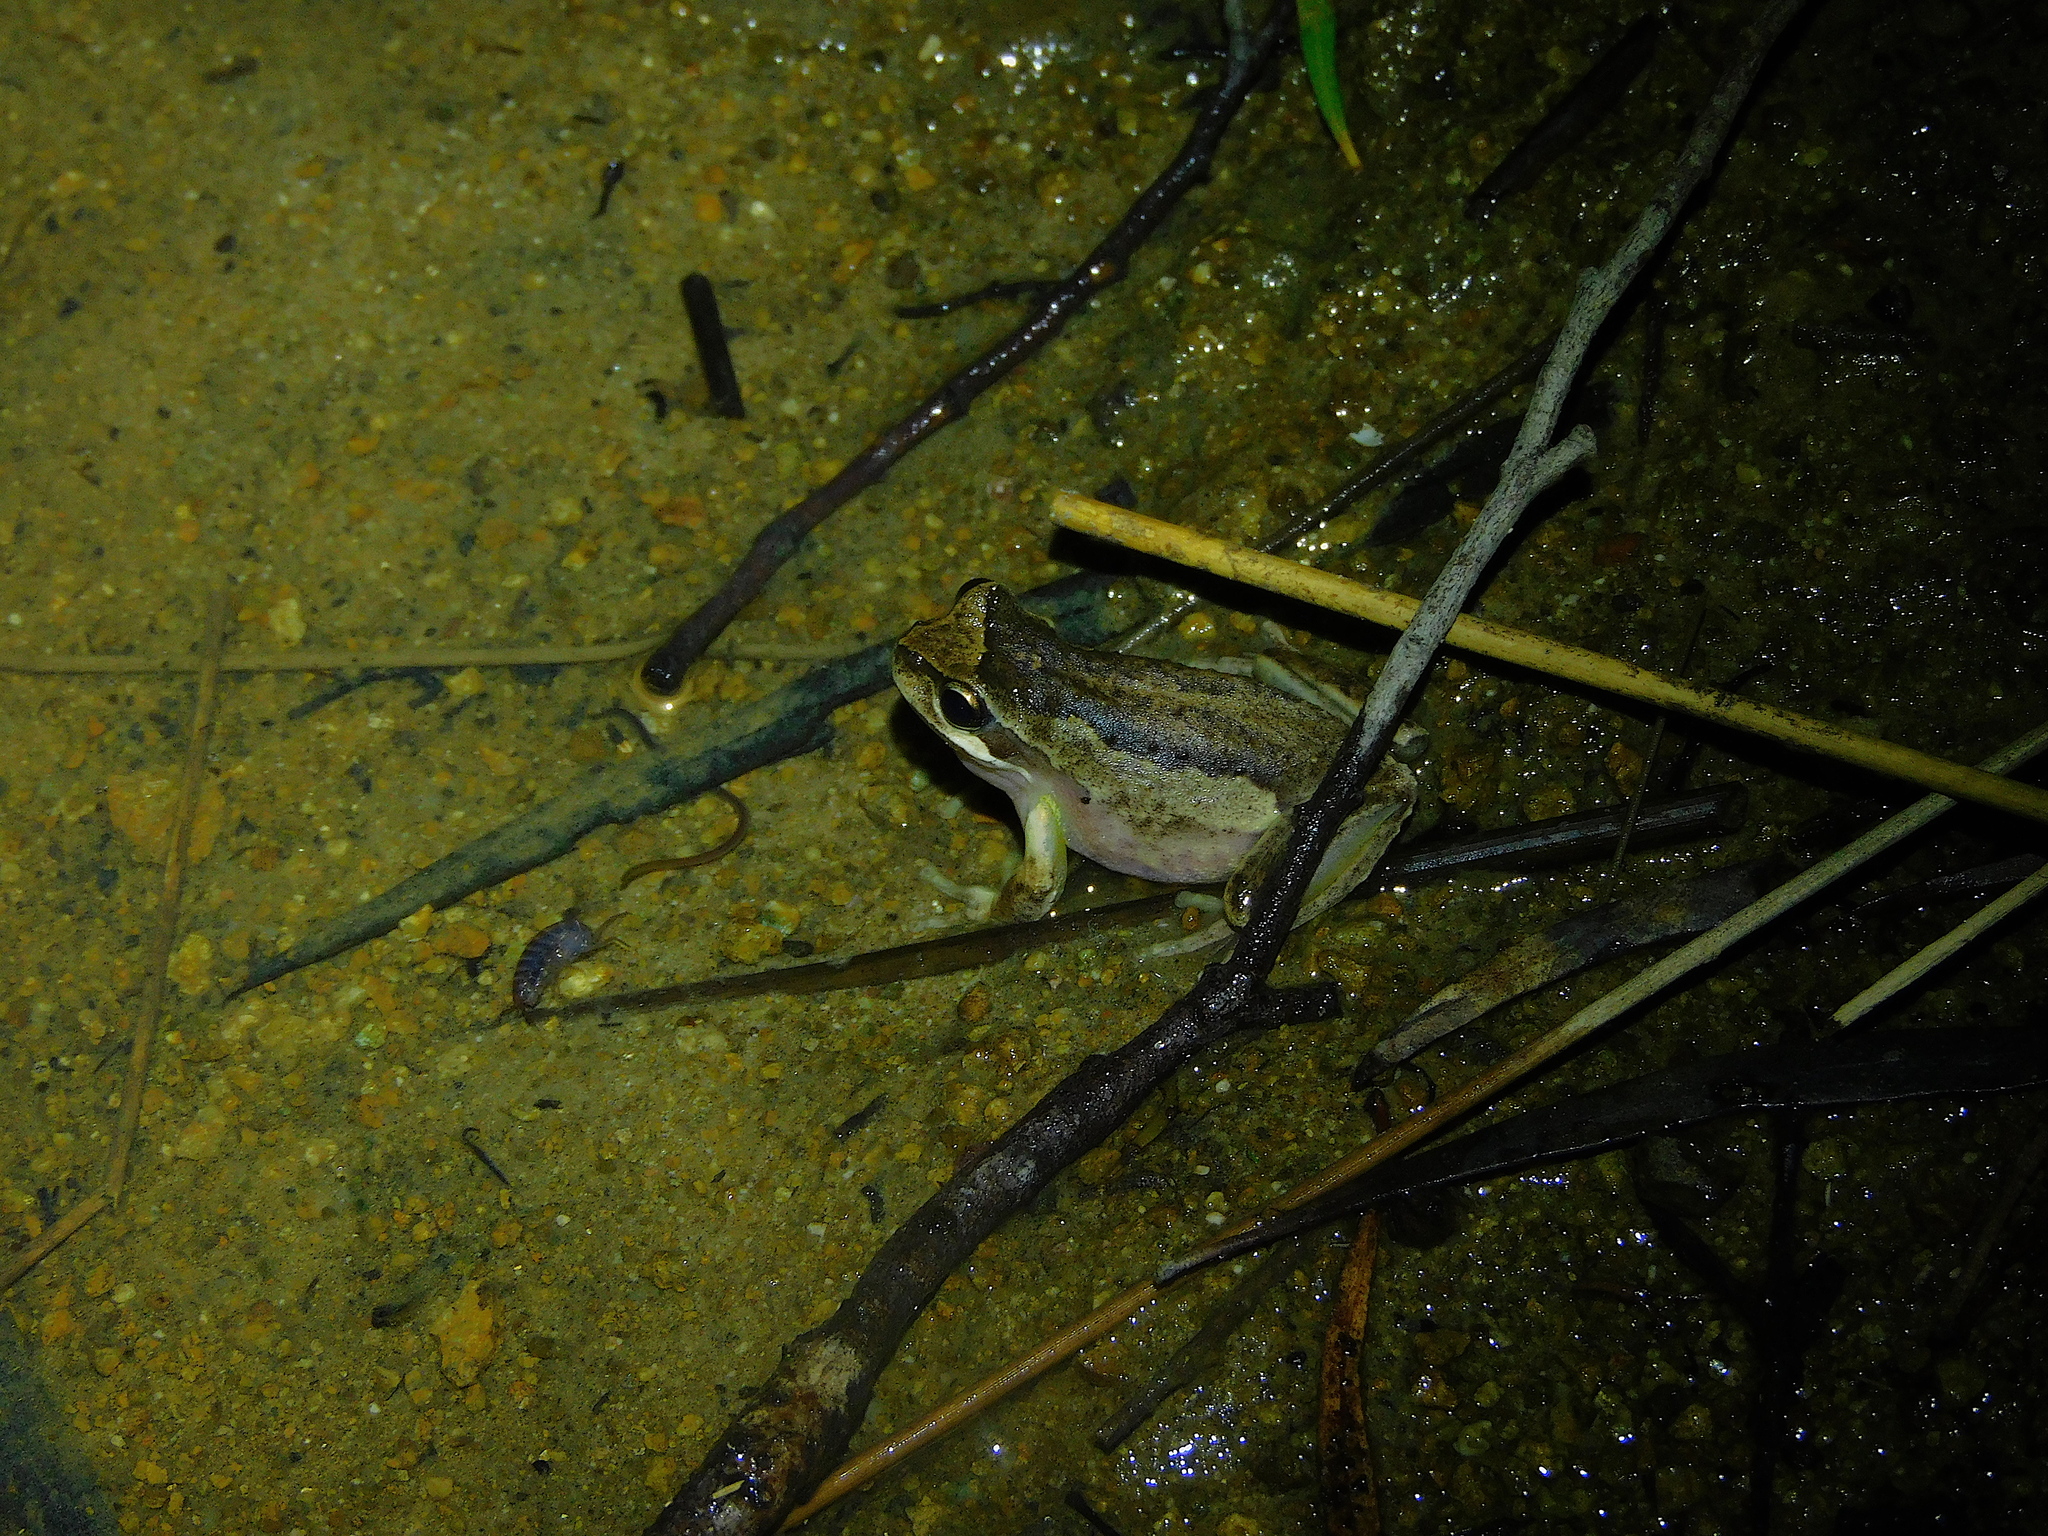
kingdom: Animalia
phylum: Chordata
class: Amphibia
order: Anura
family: Pelodryadidae
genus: Litoria
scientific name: Litoria ewingii
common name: Southern brown tree frog
